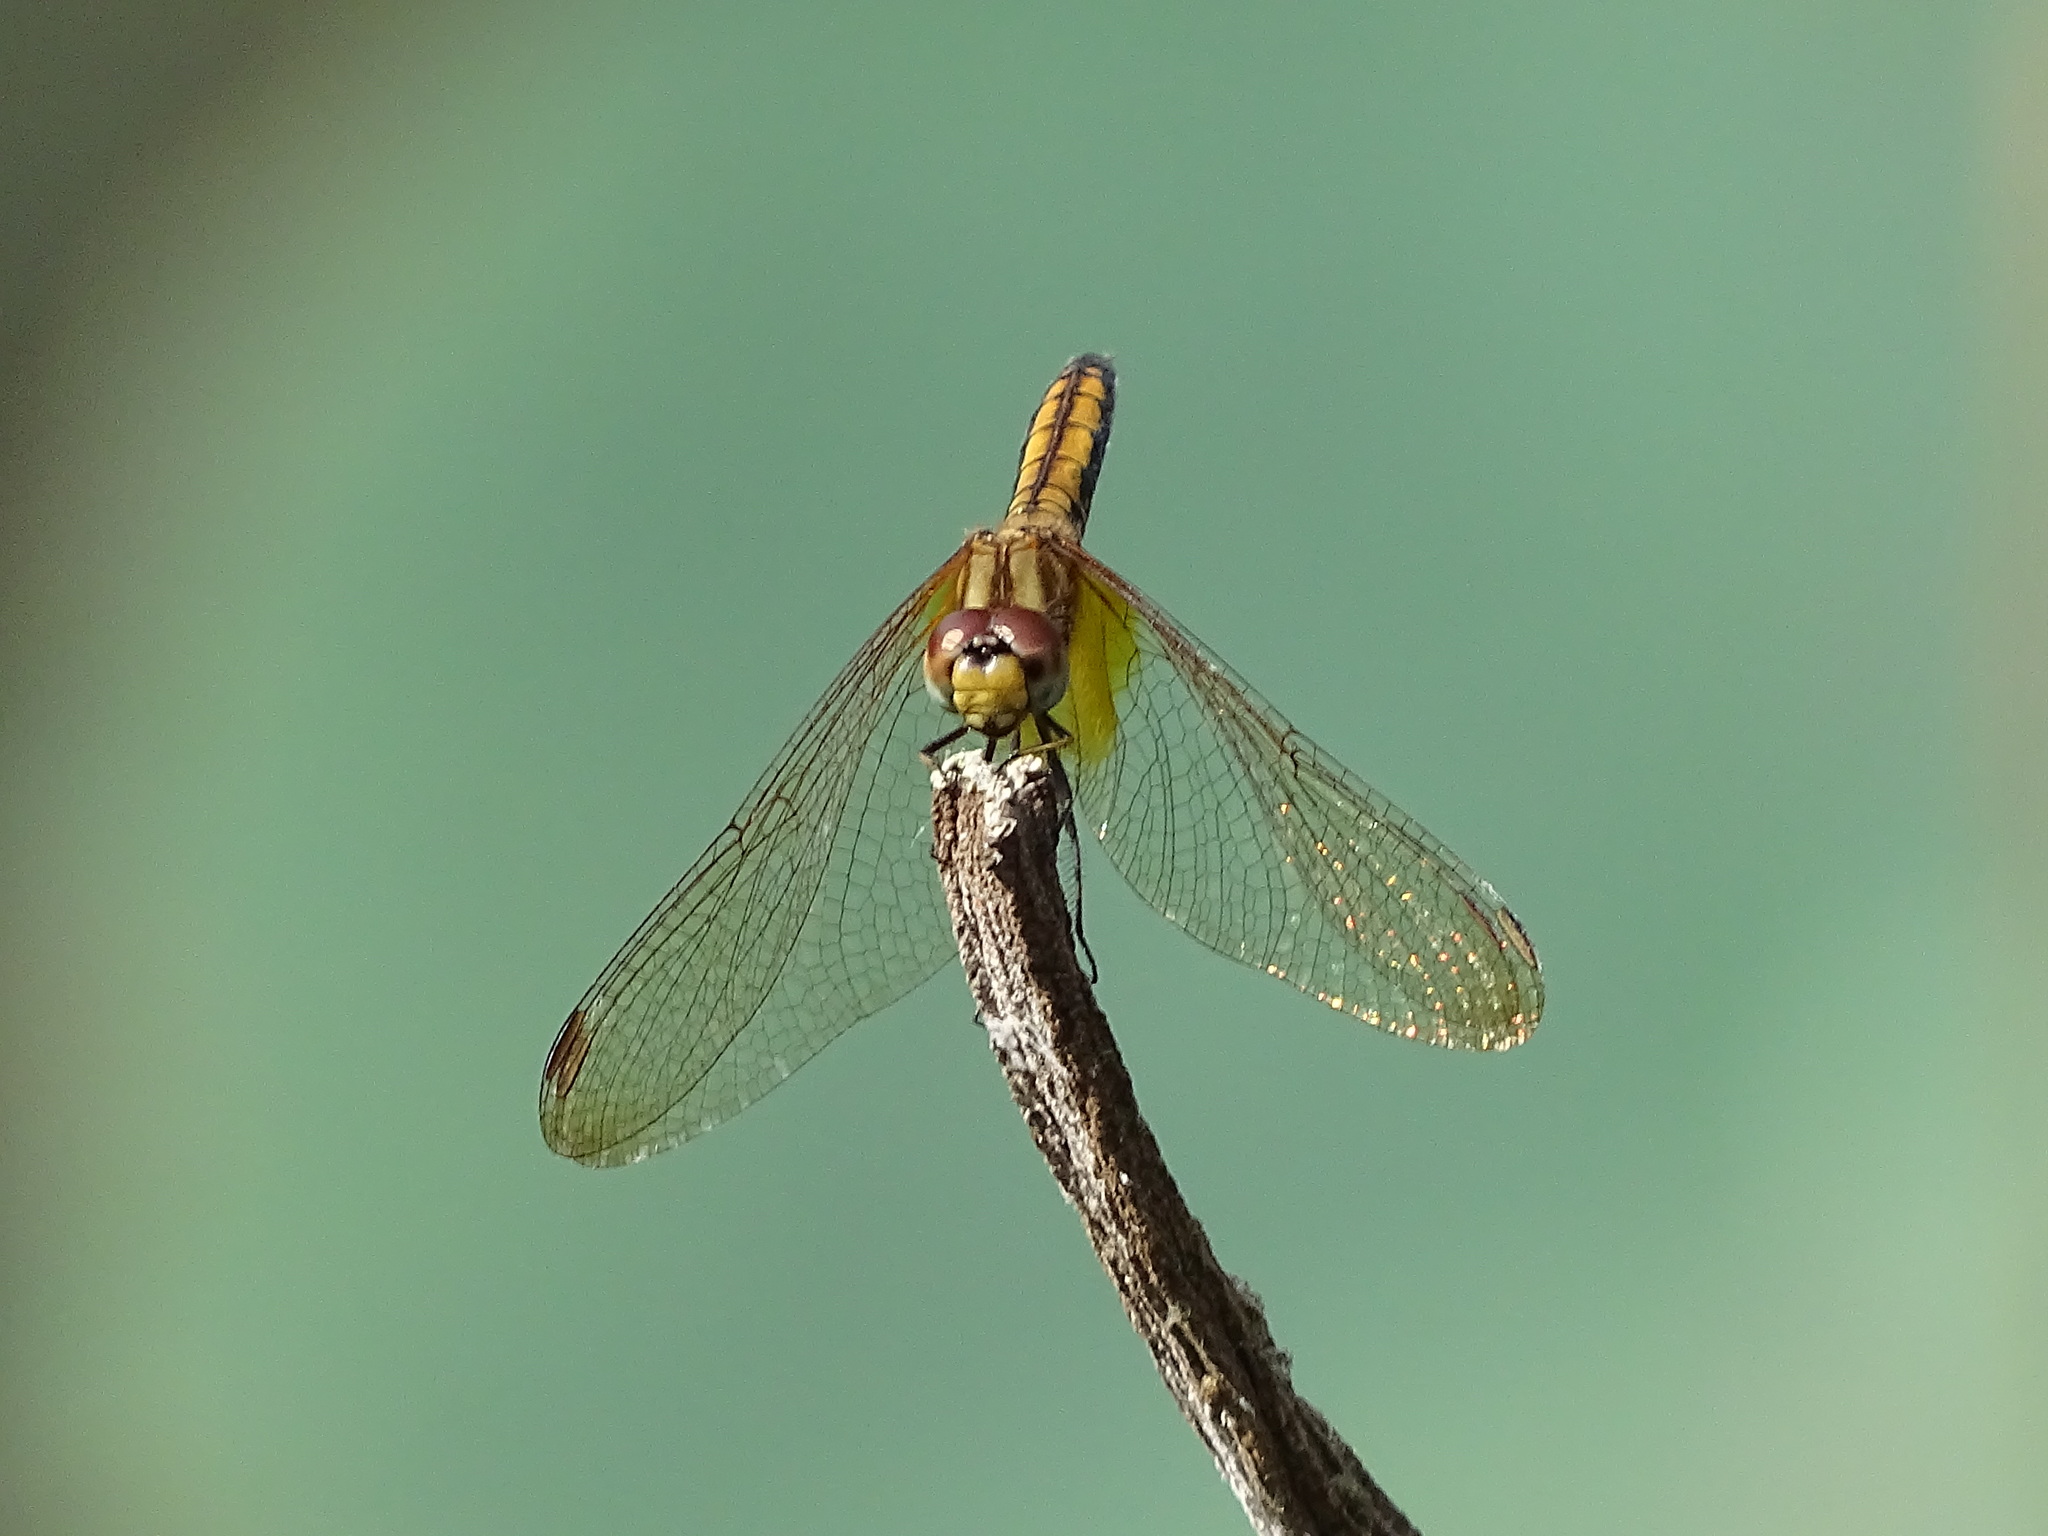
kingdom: Animalia
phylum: Arthropoda
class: Insecta
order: Odonata
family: Libellulidae
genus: Trithemis
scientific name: Trithemis aurora
